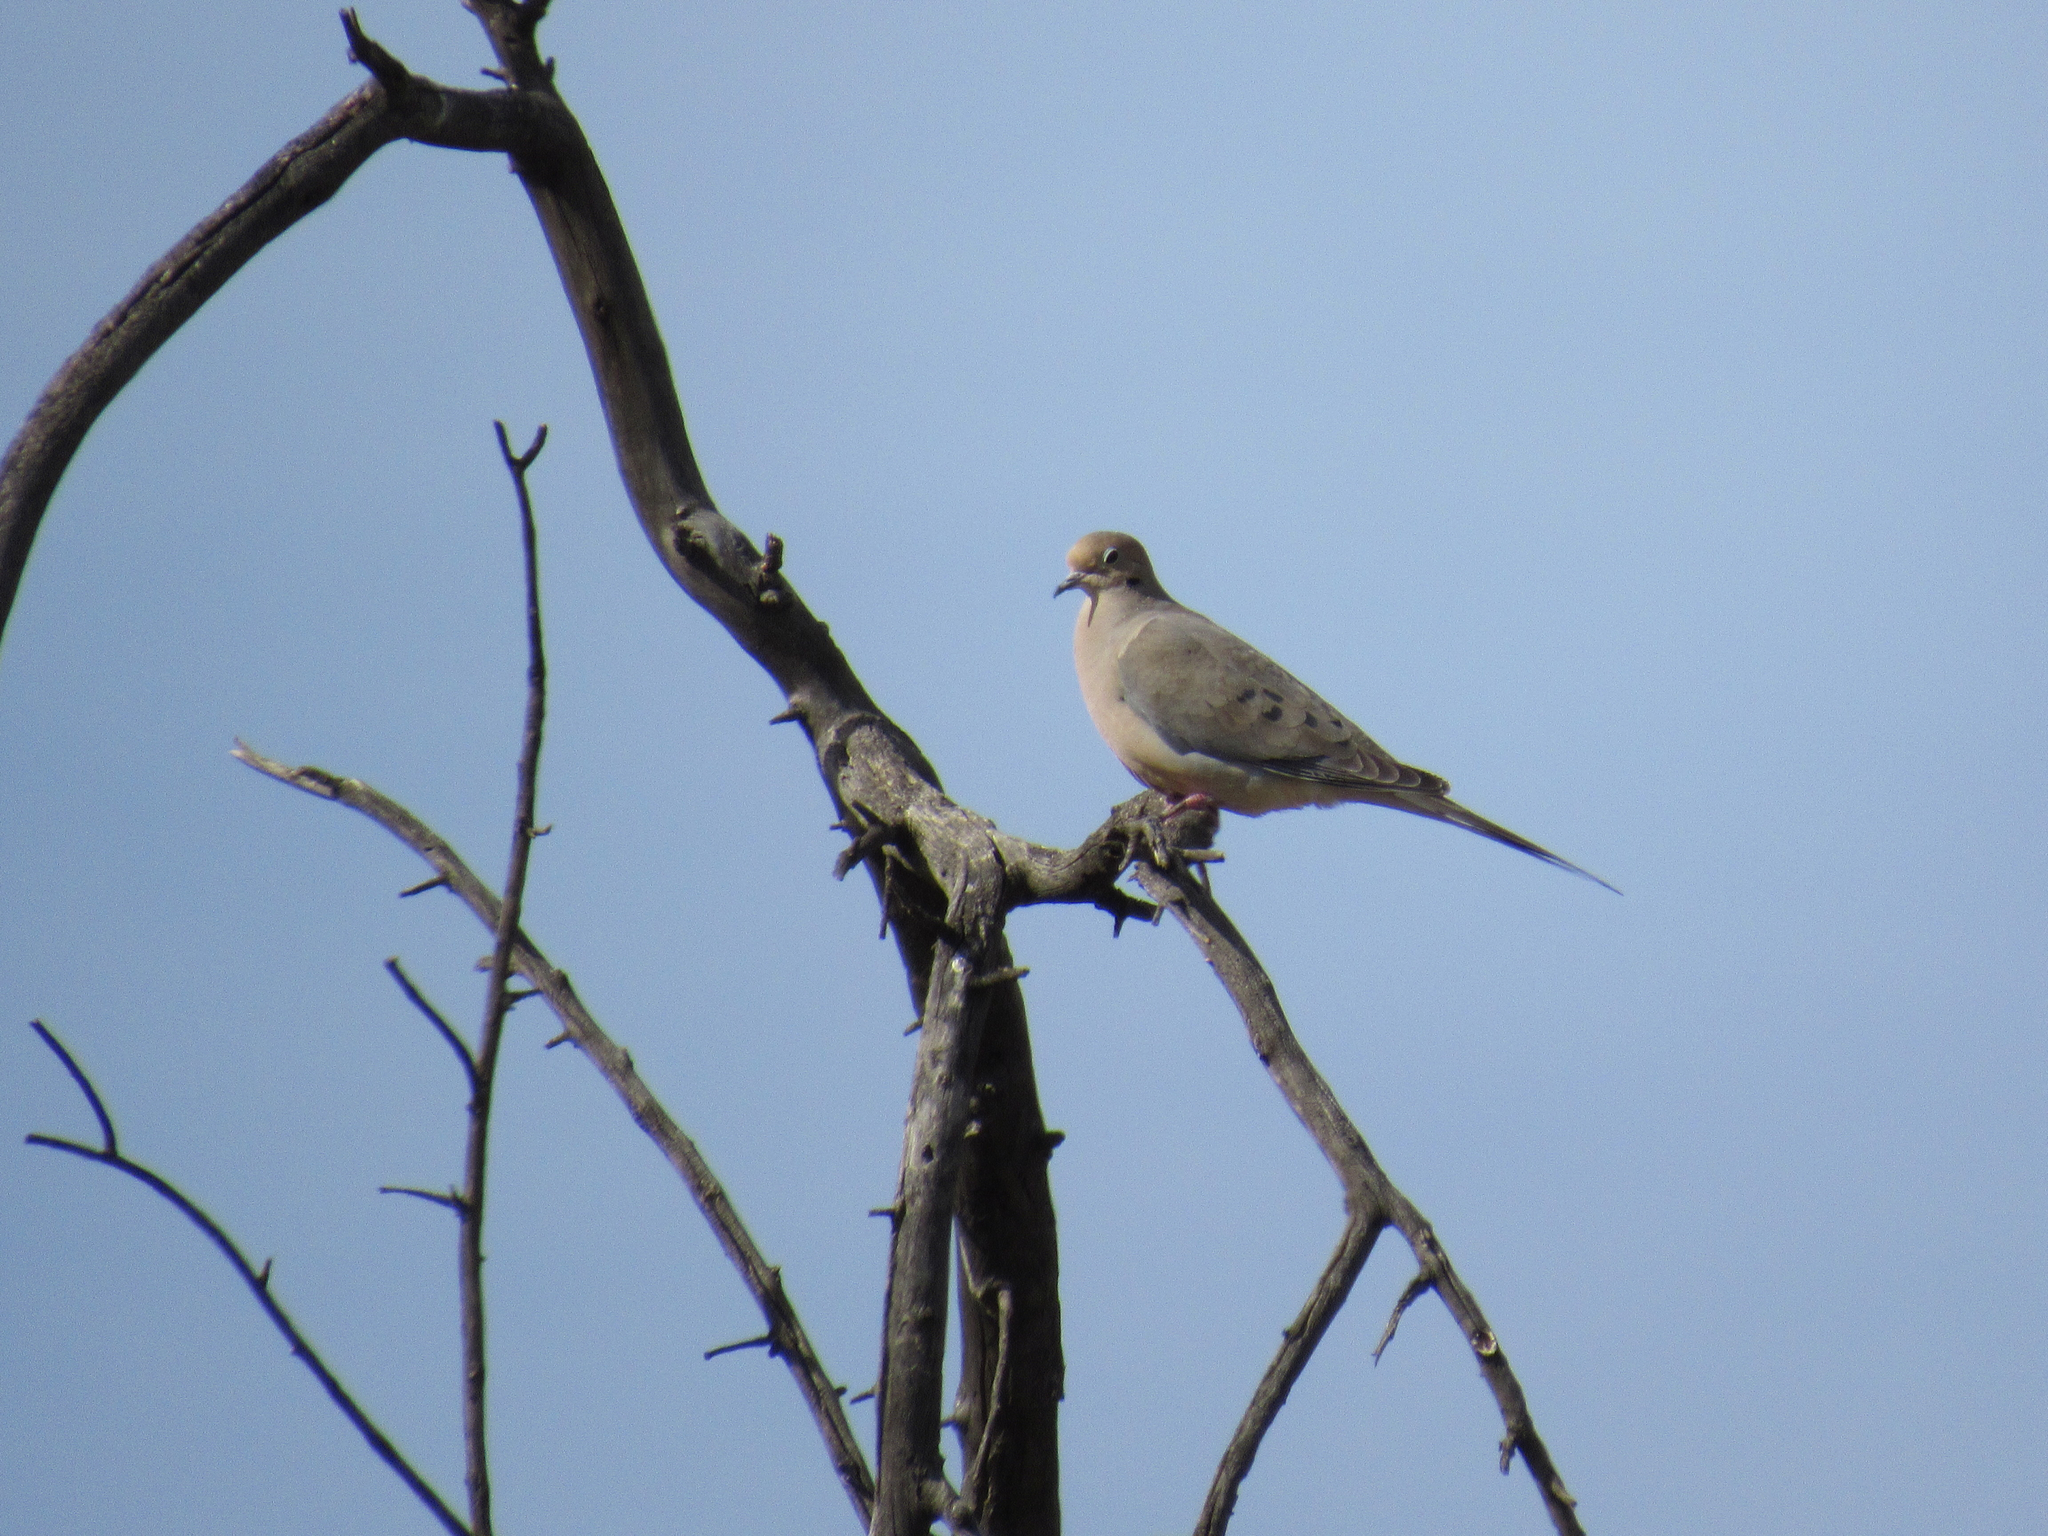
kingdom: Animalia
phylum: Chordata
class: Aves
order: Columbiformes
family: Columbidae
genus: Zenaida
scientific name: Zenaida macroura
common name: Mourning dove
